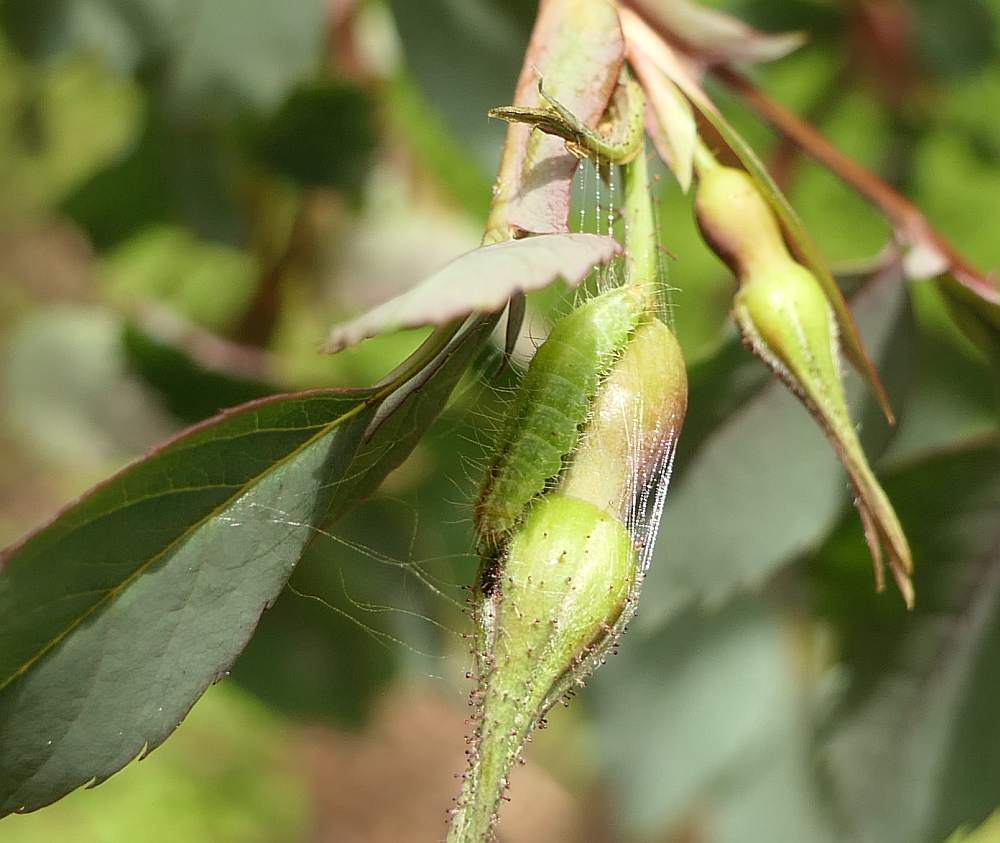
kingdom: Animalia
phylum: Arthropoda
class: Insecta
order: Lepidoptera
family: Pterophoridae
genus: Cnaemidophorus
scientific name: Cnaemidophorus rhododactyla
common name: Rose plume
